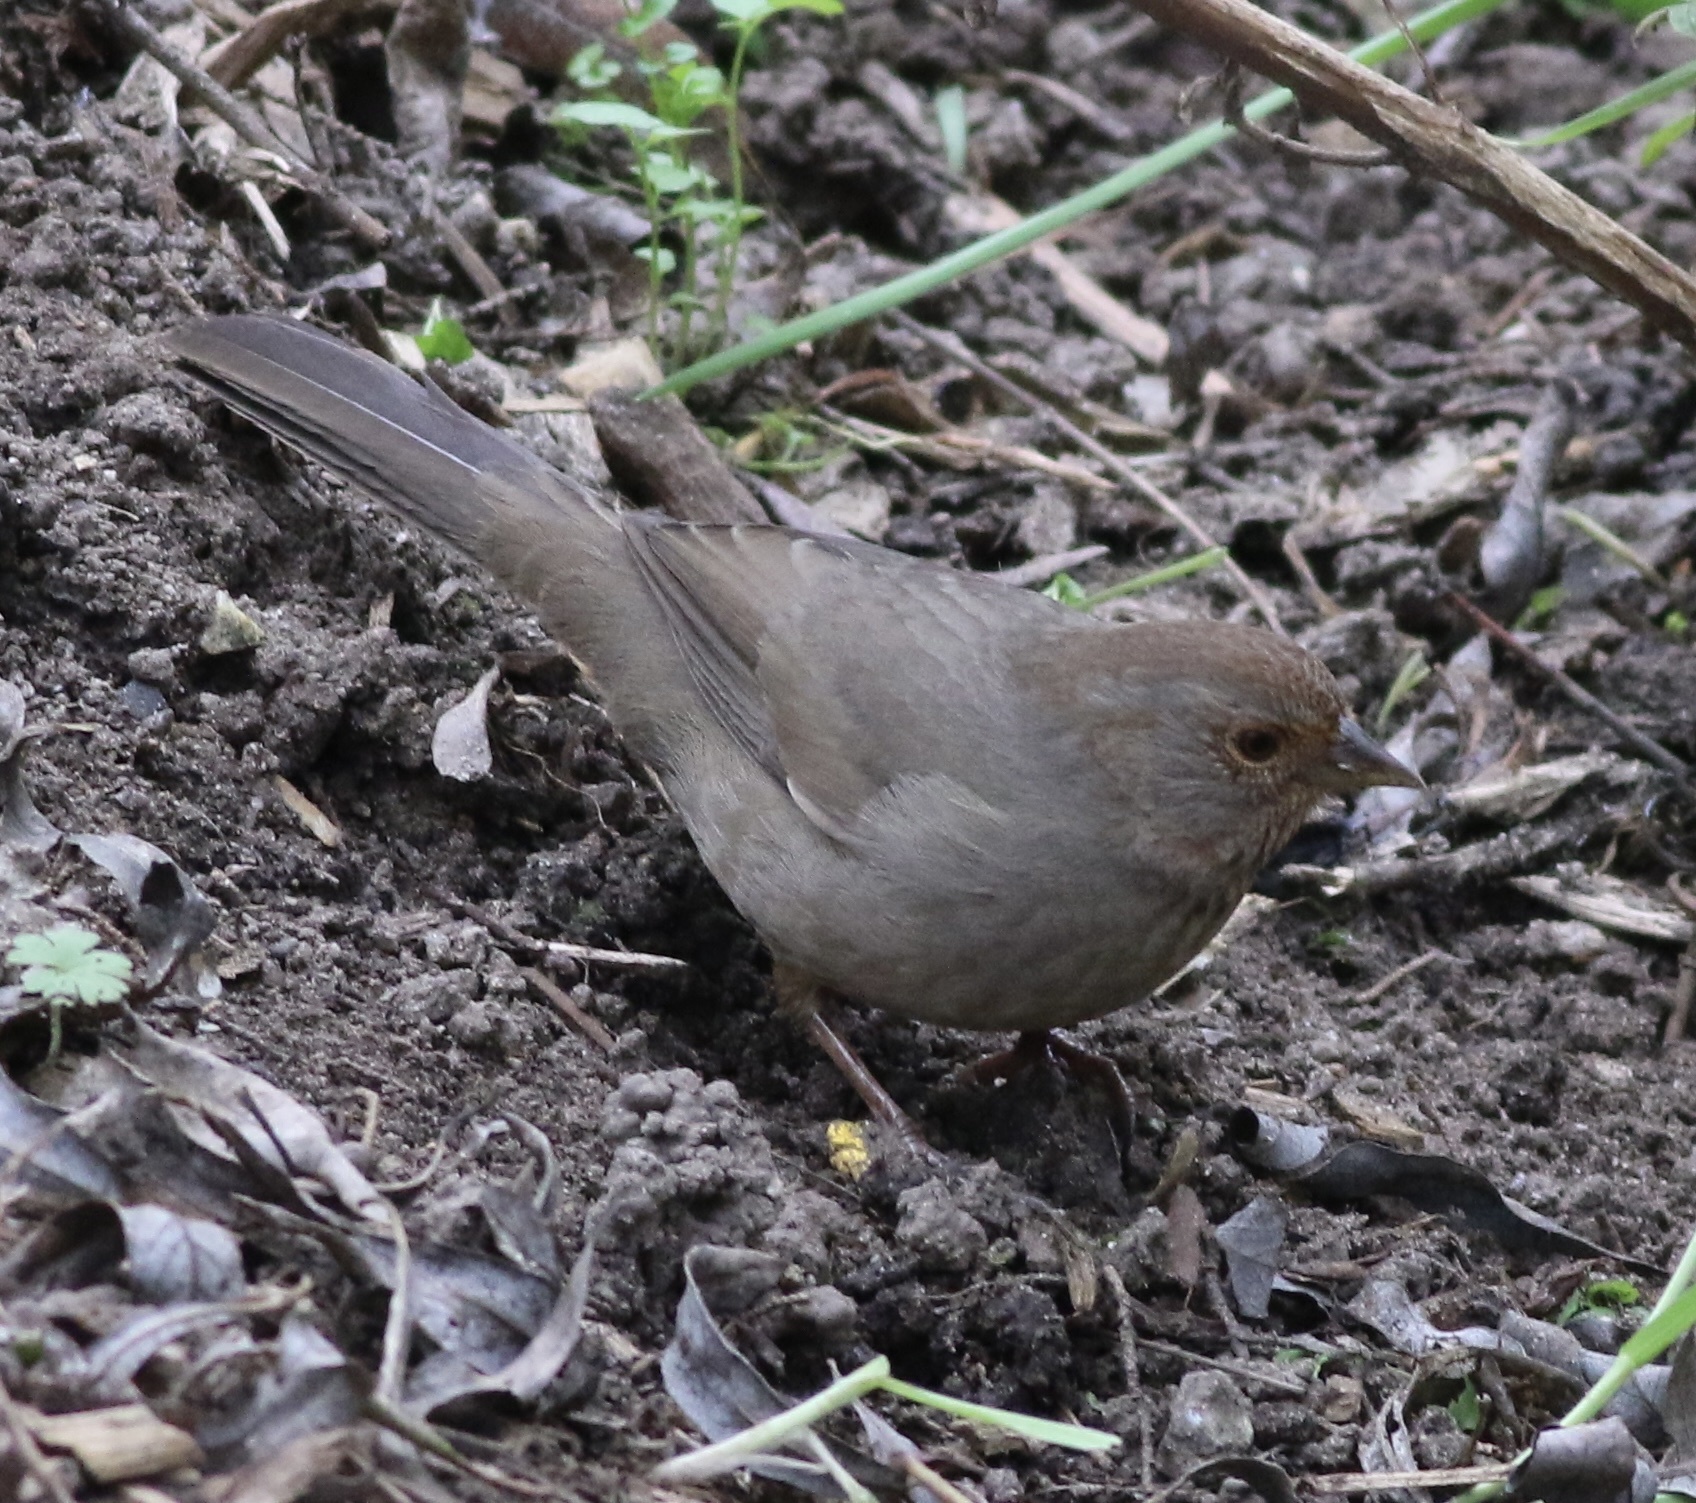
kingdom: Animalia
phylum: Chordata
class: Aves
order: Passeriformes
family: Passerellidae
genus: Melozone
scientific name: Melozone crissalis
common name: California towhee
